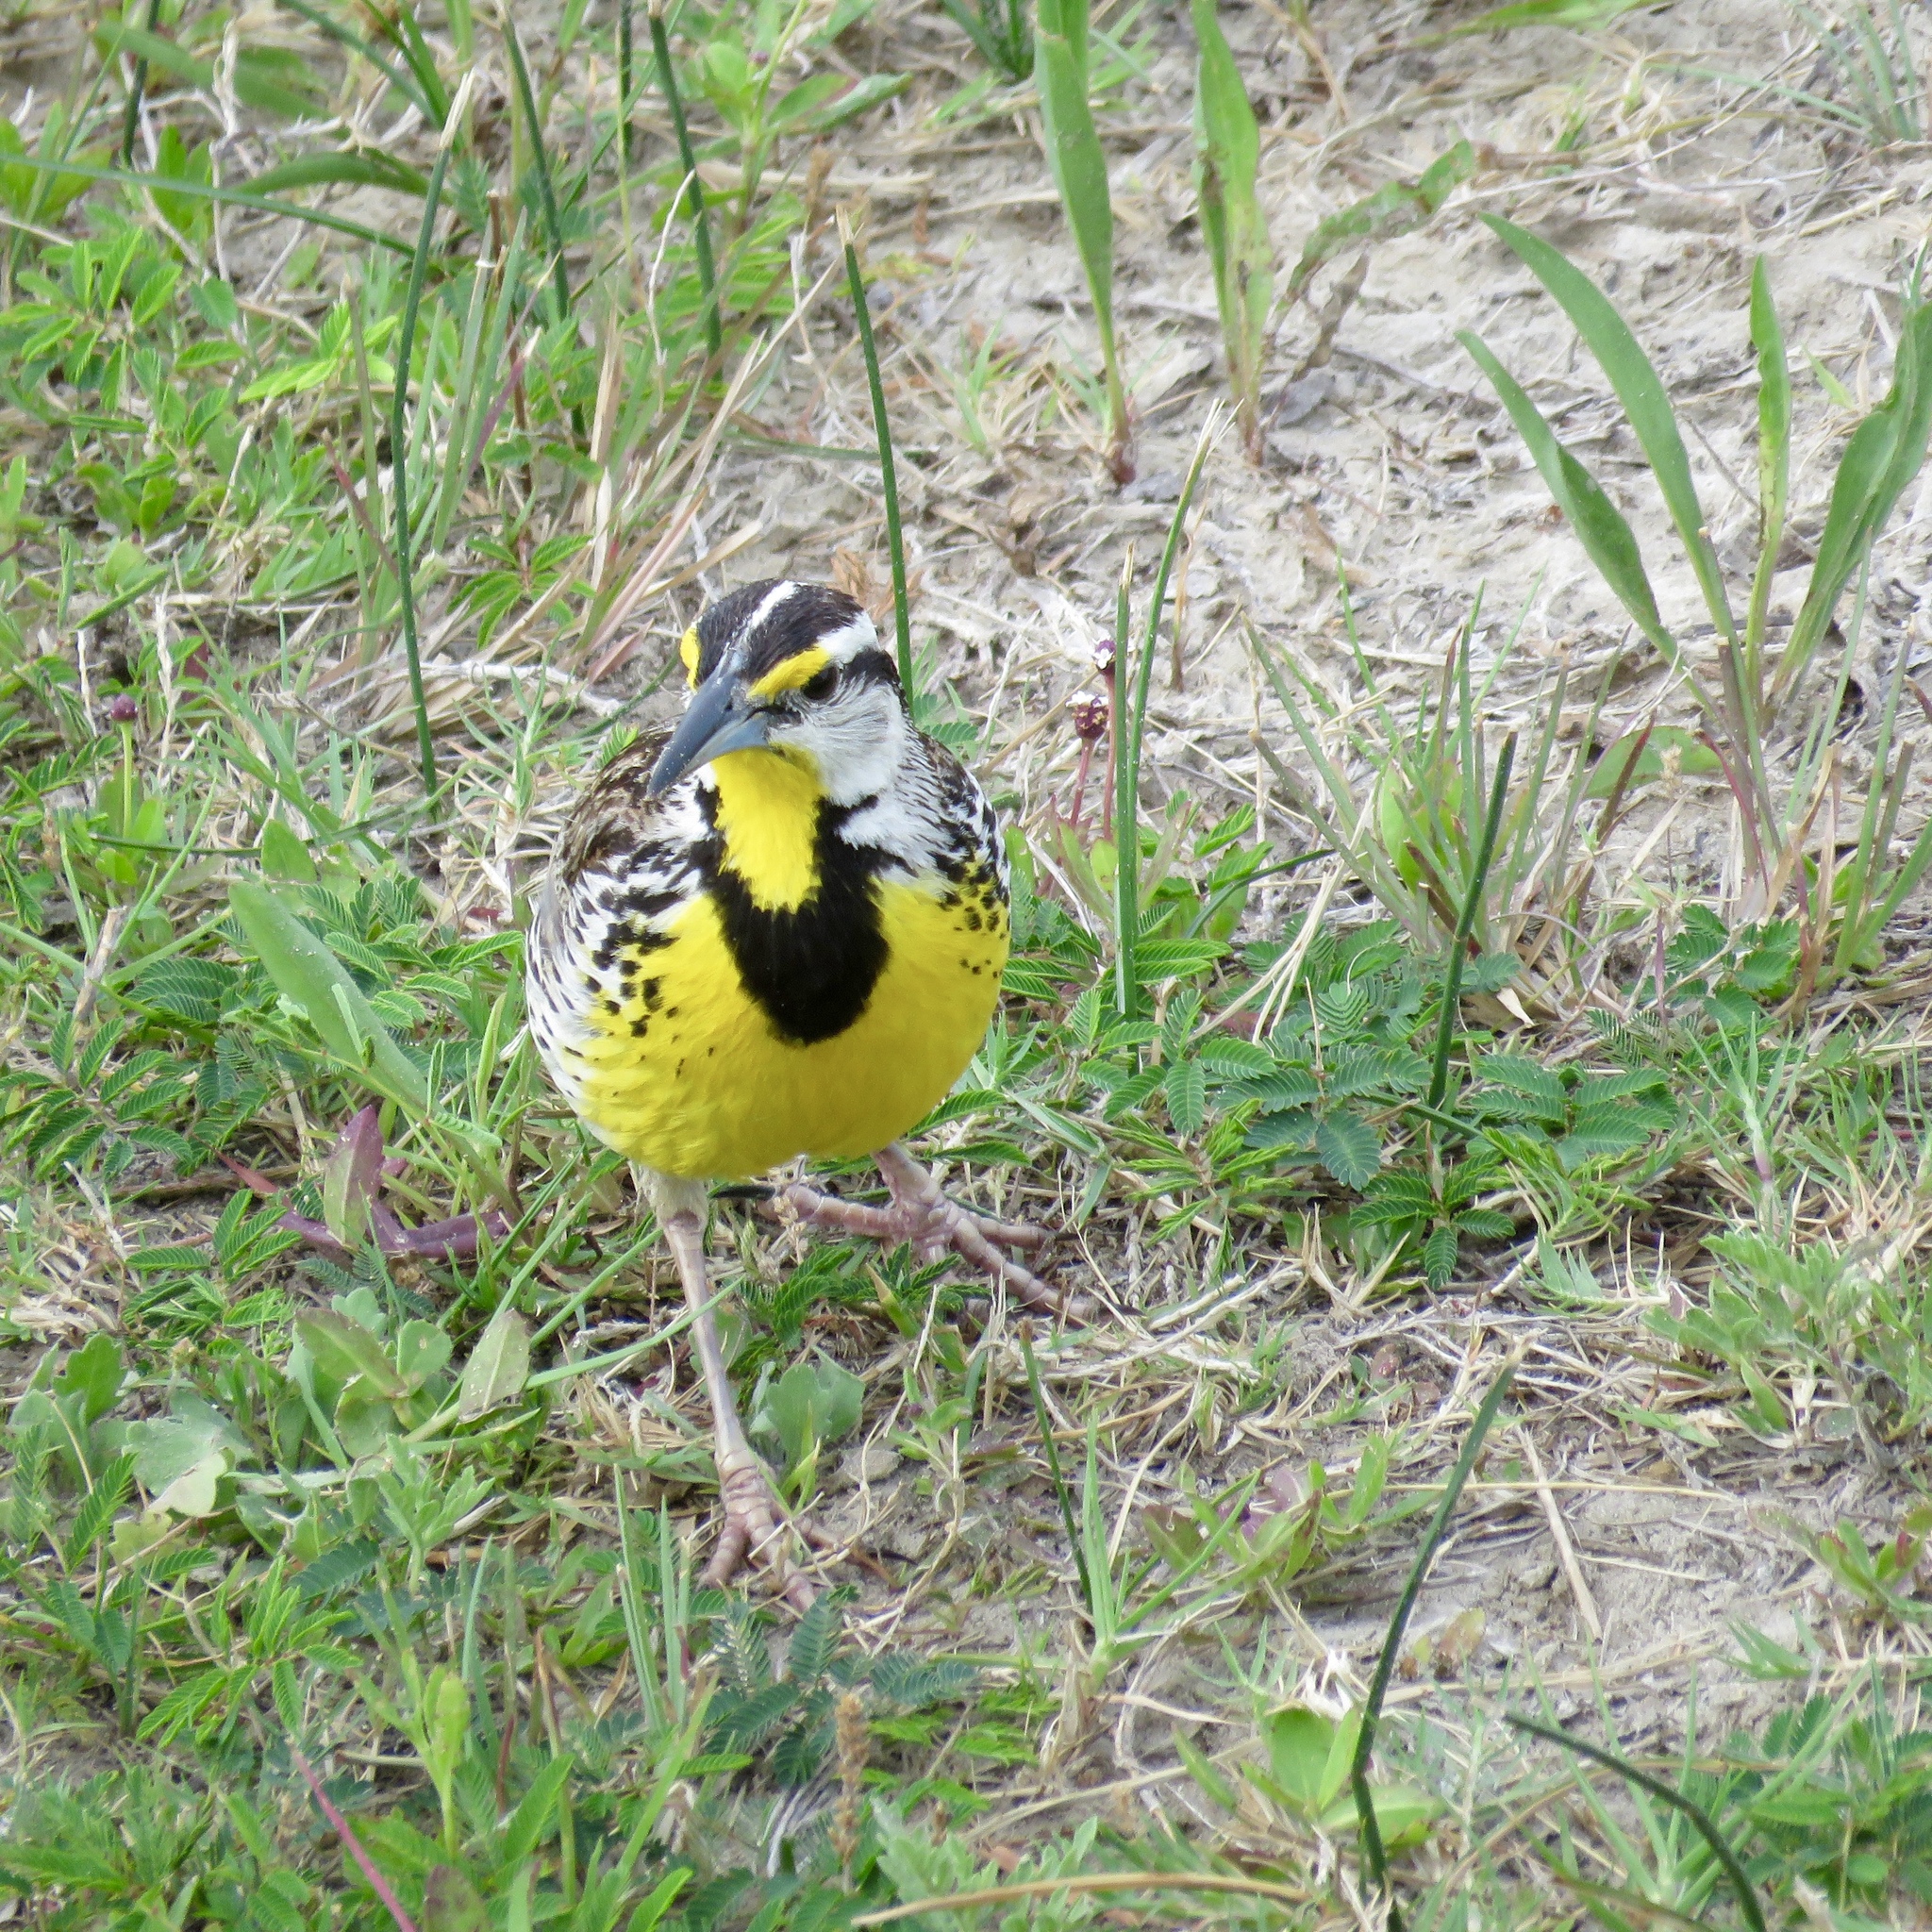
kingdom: Animalia
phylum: Chordata
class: Aves
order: Passeriformes
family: Icteridae
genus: Sturnella
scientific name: Sturnella magna
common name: Eastern meadowlark
